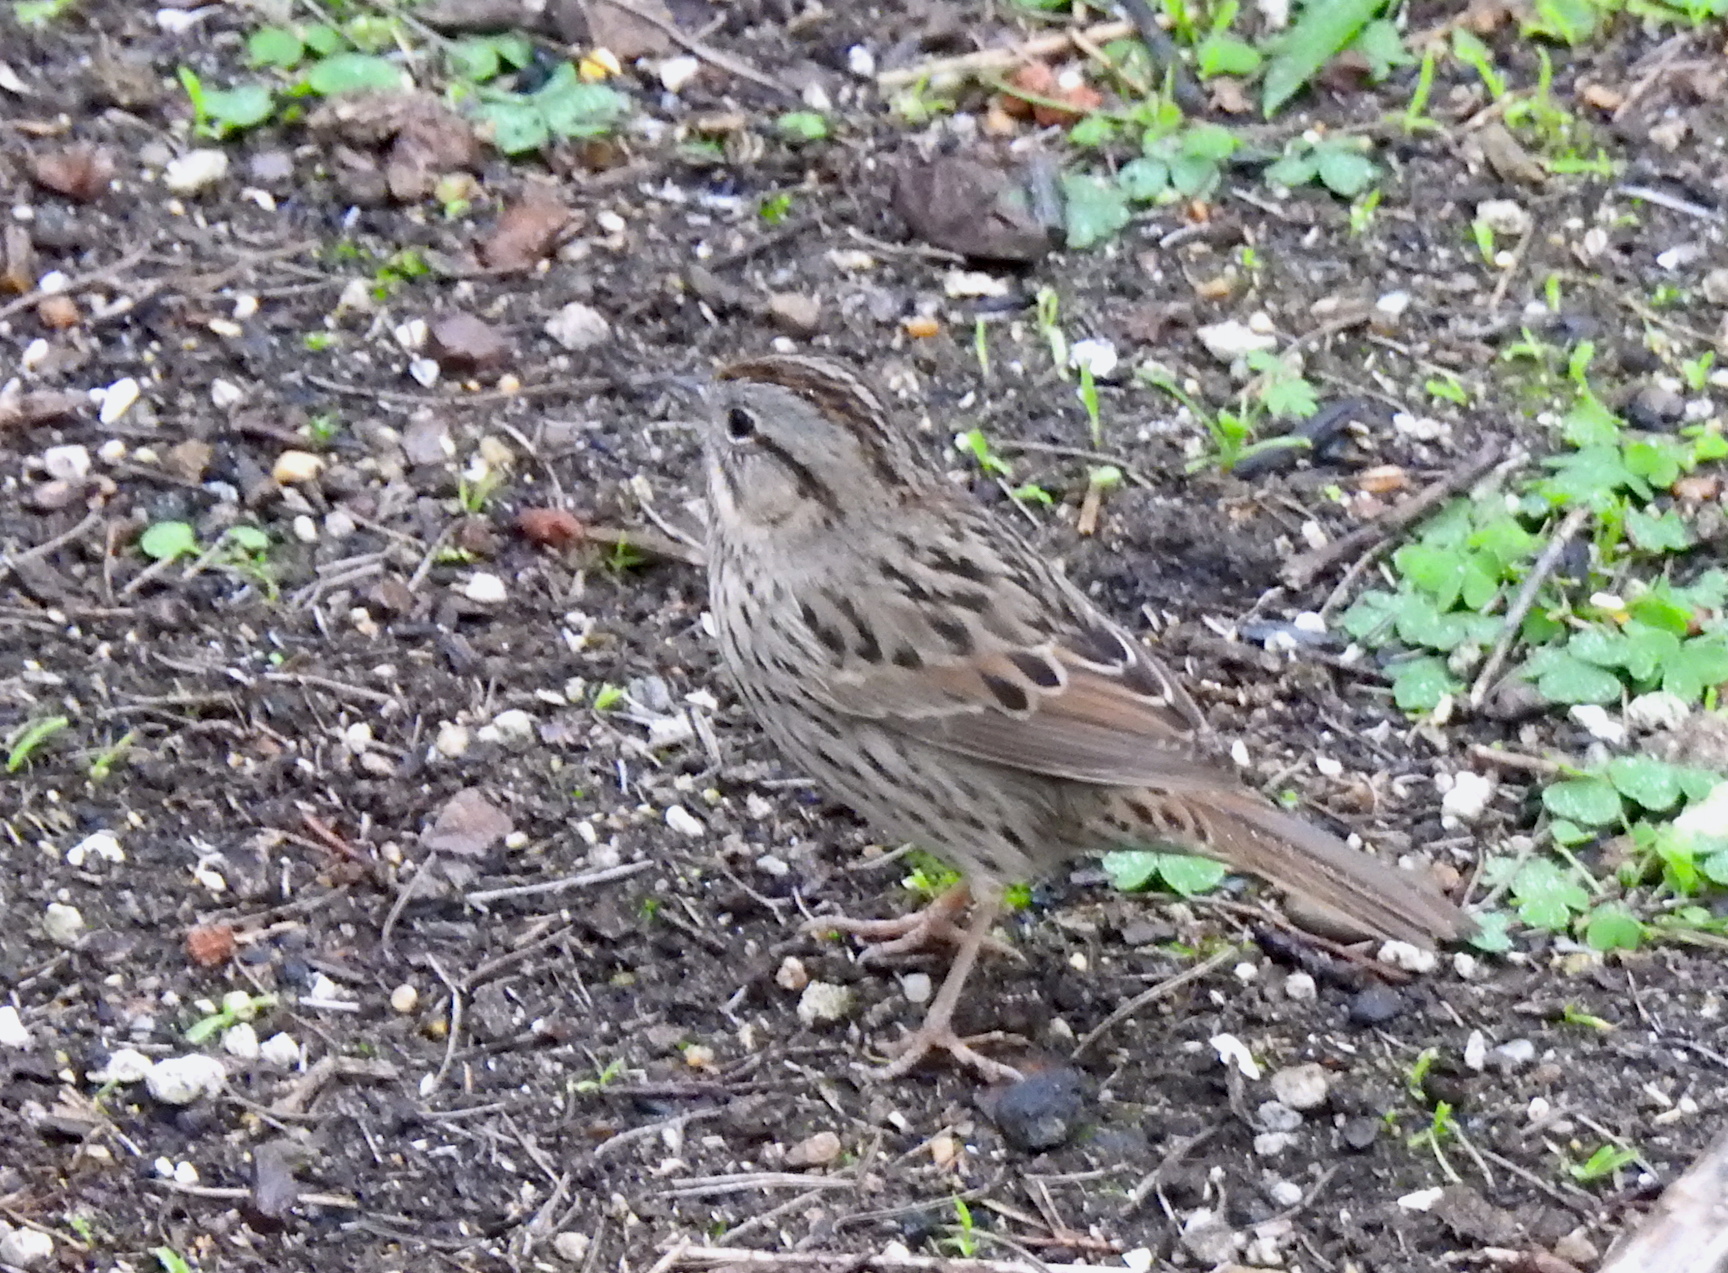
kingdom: Animalia
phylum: Chordata
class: Aves
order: Passeriformes
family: Passerellidae
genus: Melospiza
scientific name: Melospiza lincolnii
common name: Lincoln's sparrow
